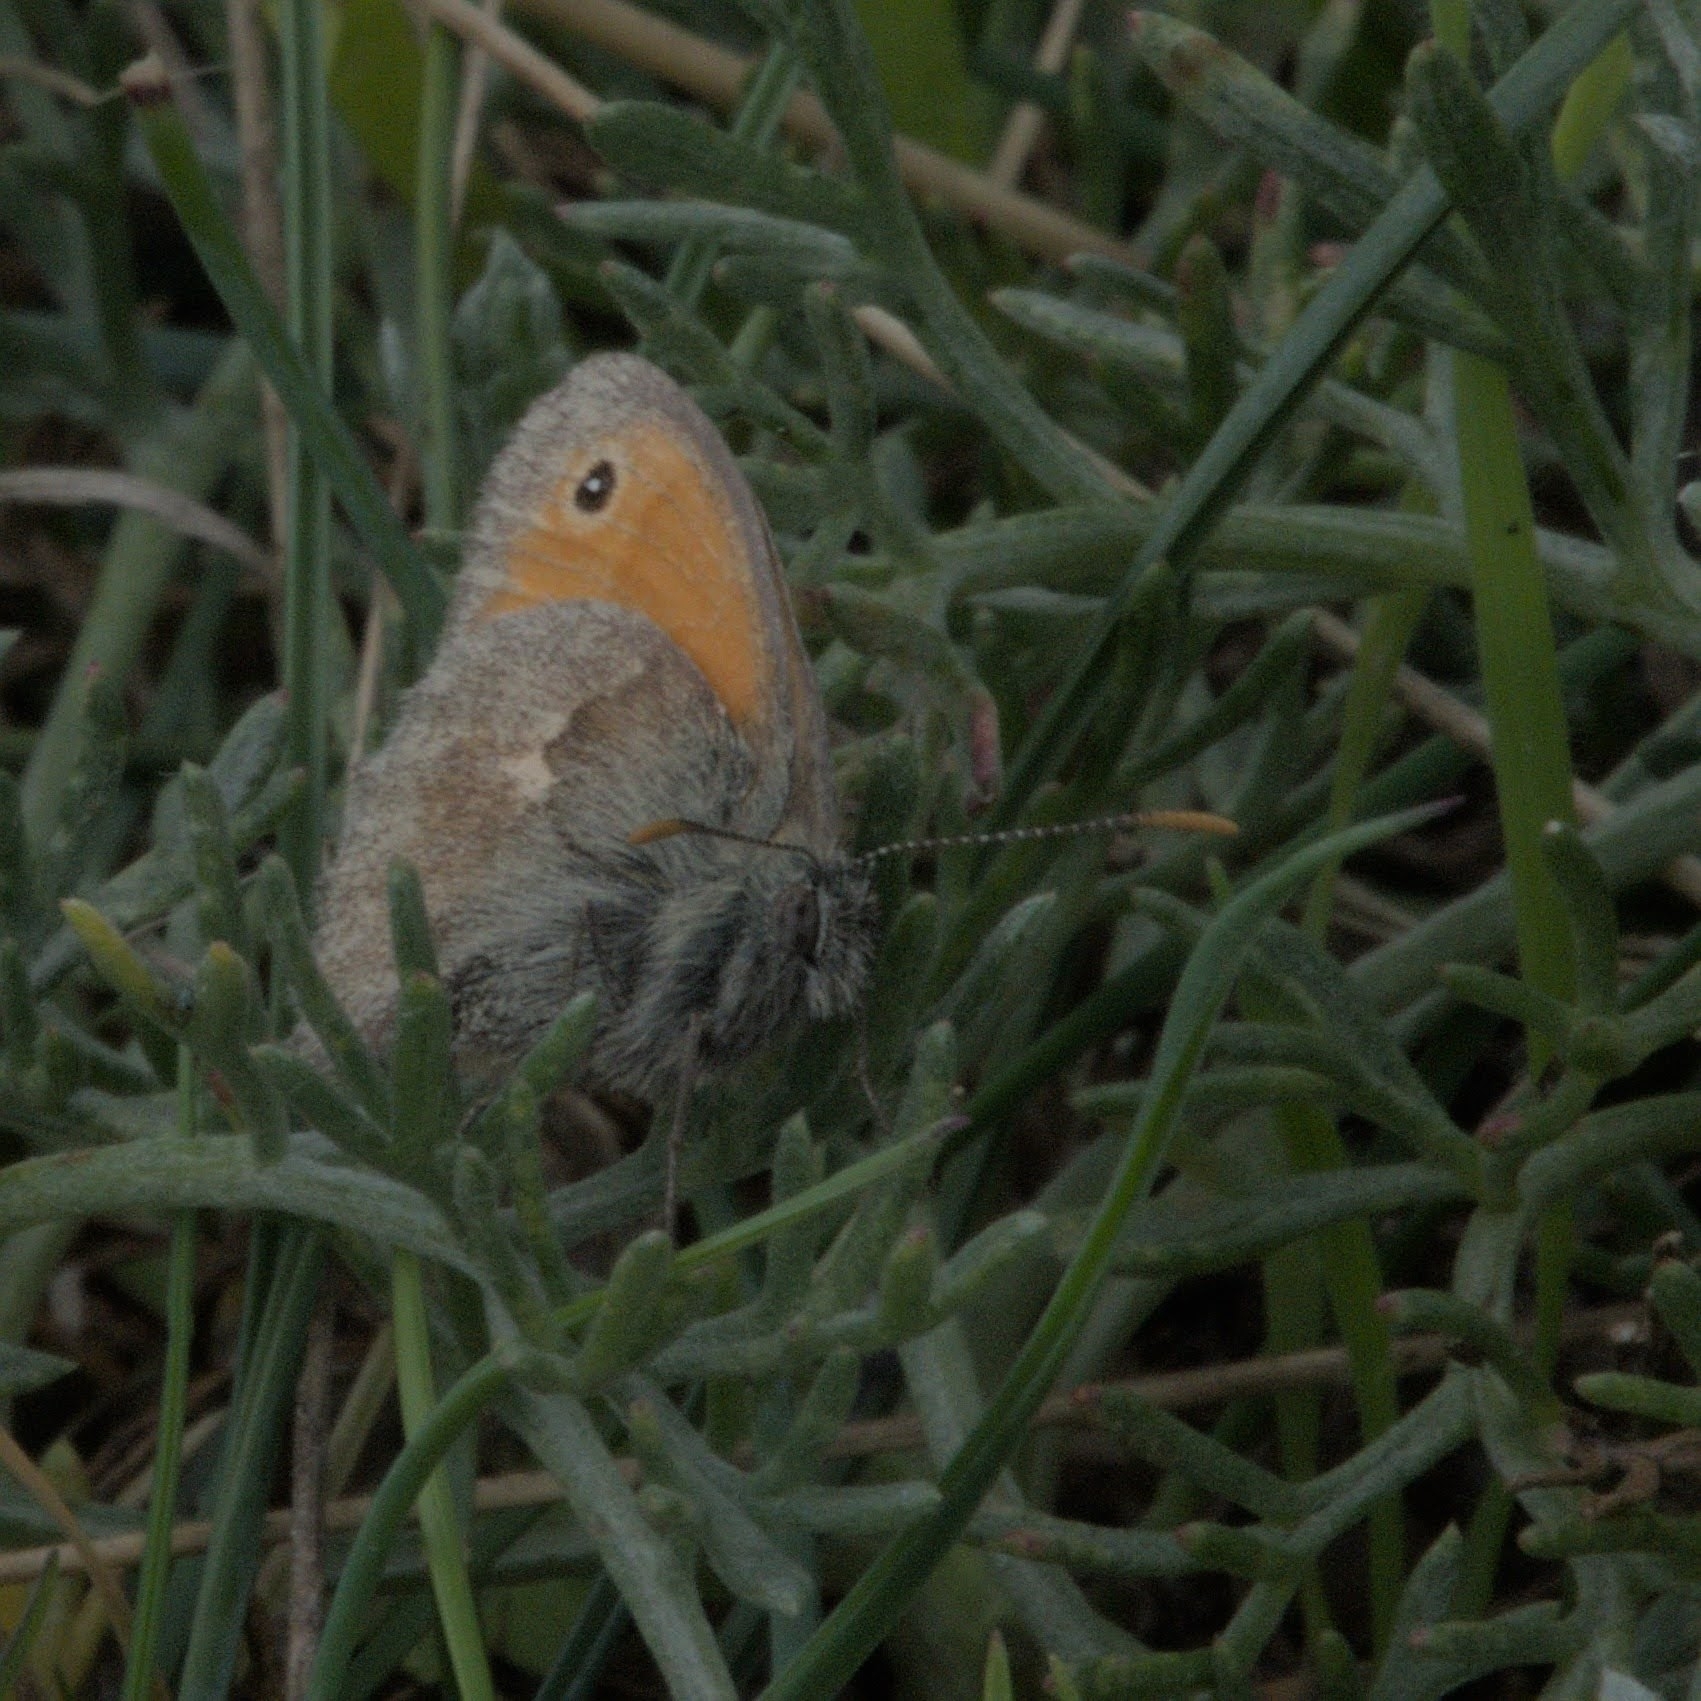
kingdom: Animalia
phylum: Arthropoda
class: Insecta
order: Lepidoptera
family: Nymphalidae
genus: Coenonympha
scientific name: Coenonympha pamphilus
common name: Small heath
